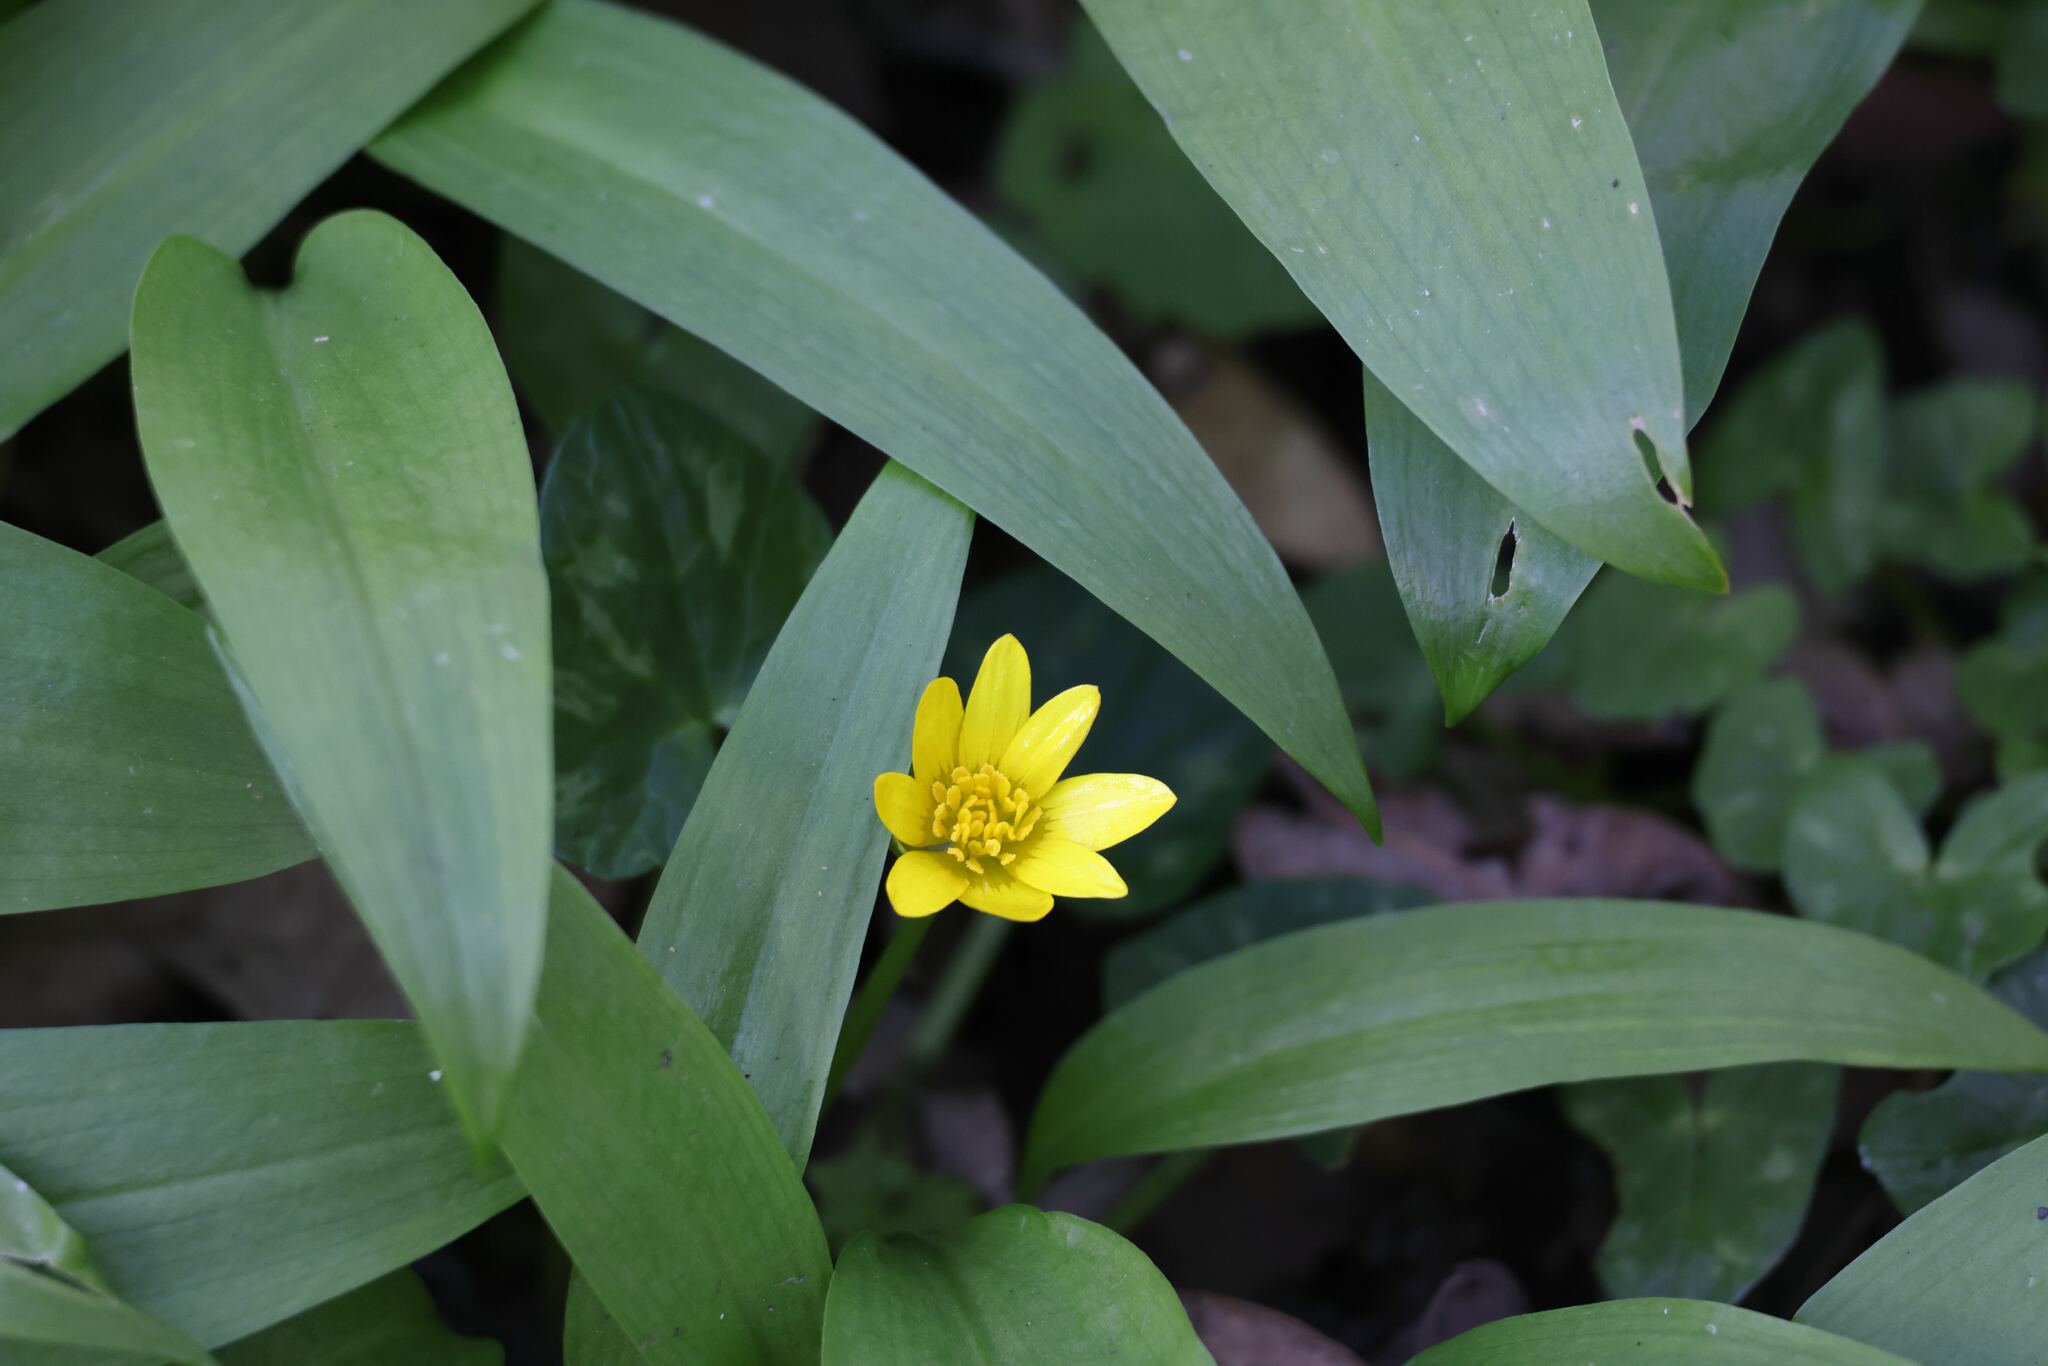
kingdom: Plantae
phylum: Tracheophyta
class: Magnoliopsida
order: Ranunculales
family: Ranunculaceae
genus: Ficaria
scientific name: Ficaria verna
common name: Lesser celandine
